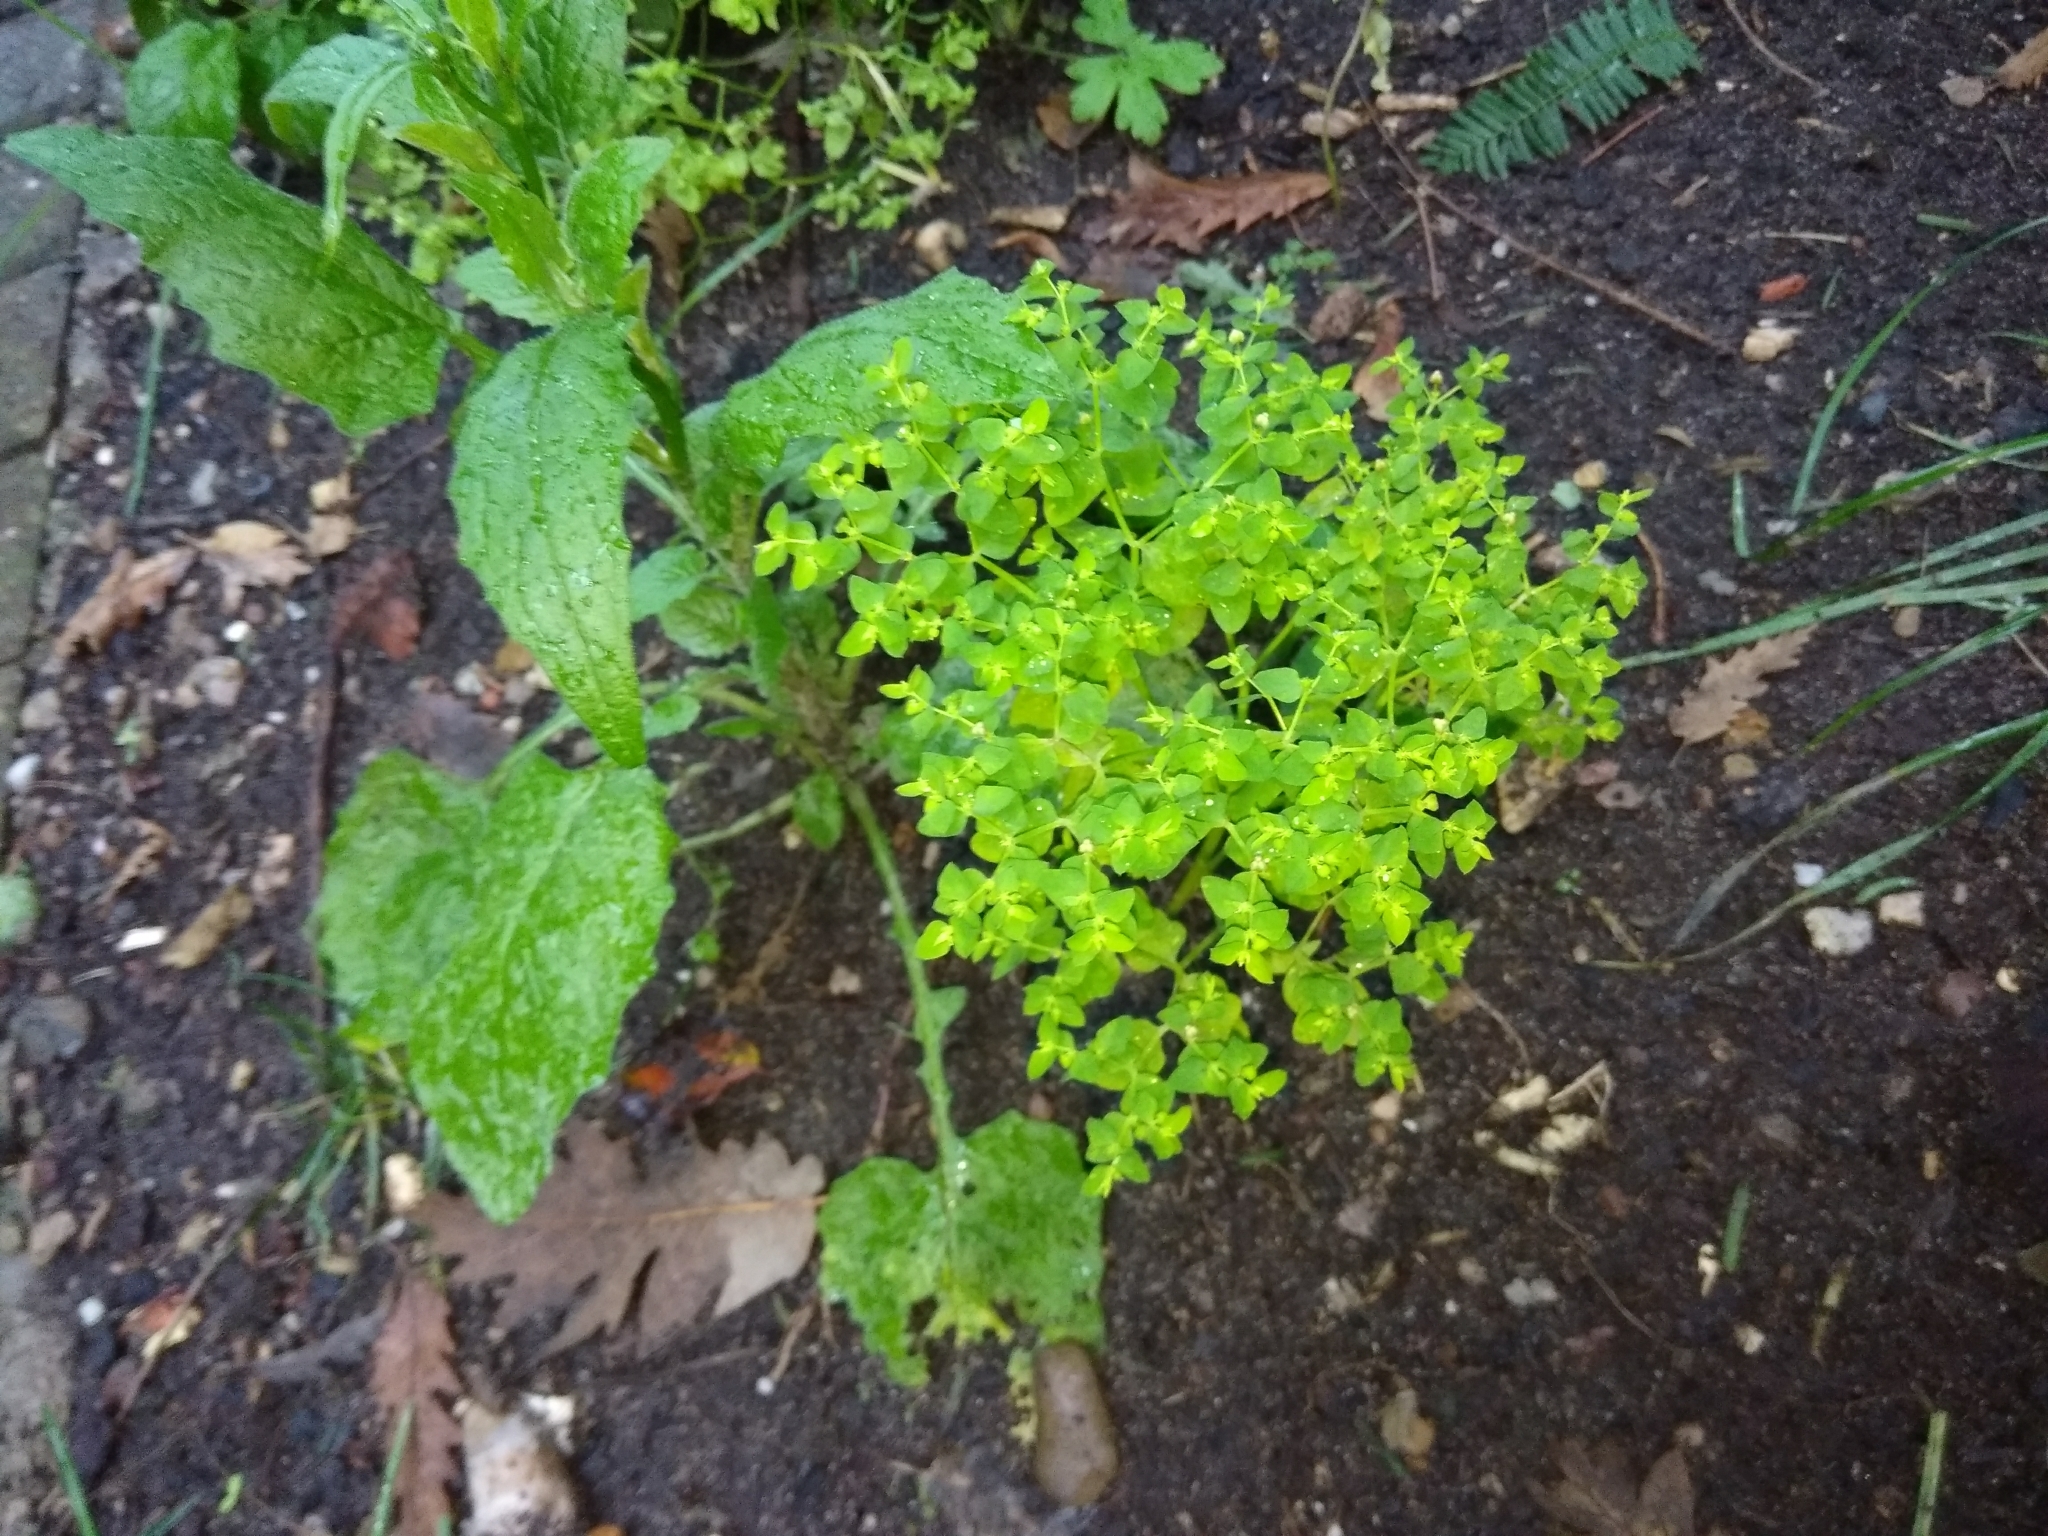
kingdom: Plantae
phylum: Tracheophyta
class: Magnoliopsida
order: Malpighiales
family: Euphorbiaceae
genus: Euphorbia
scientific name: Euphorbia peplus
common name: Petty spurge
